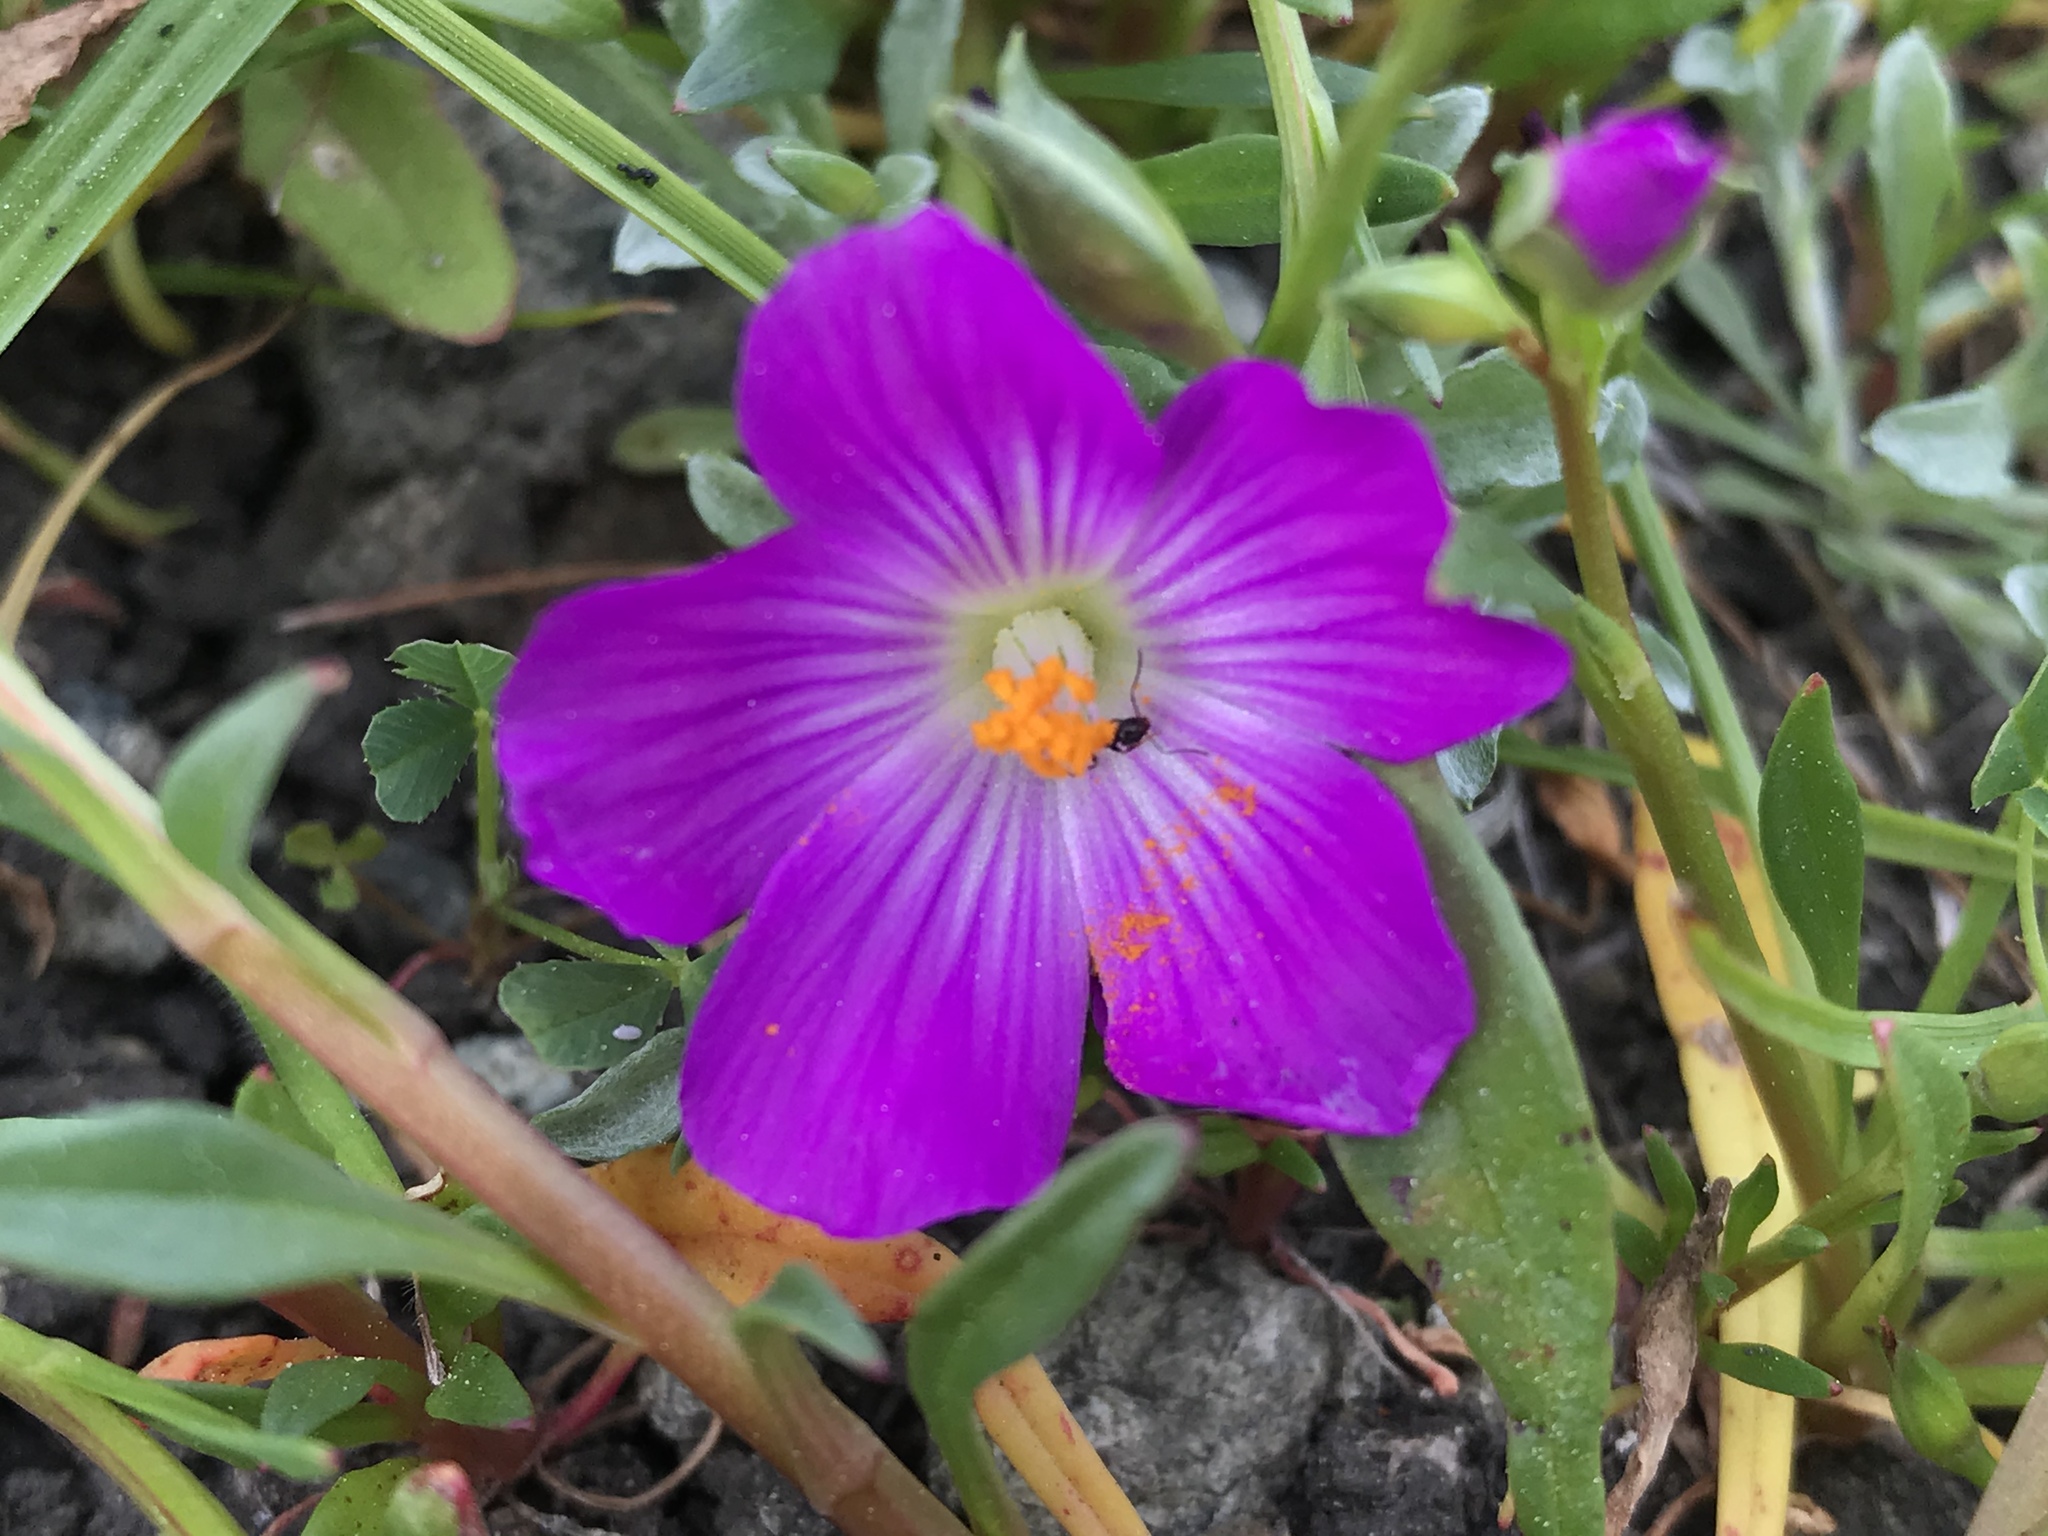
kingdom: Plantae
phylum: Tracheophyta
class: Magnoliopsida
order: Caryophyllales
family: Montiaceae
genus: Calandrinia
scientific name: Calandrinia menziesii
